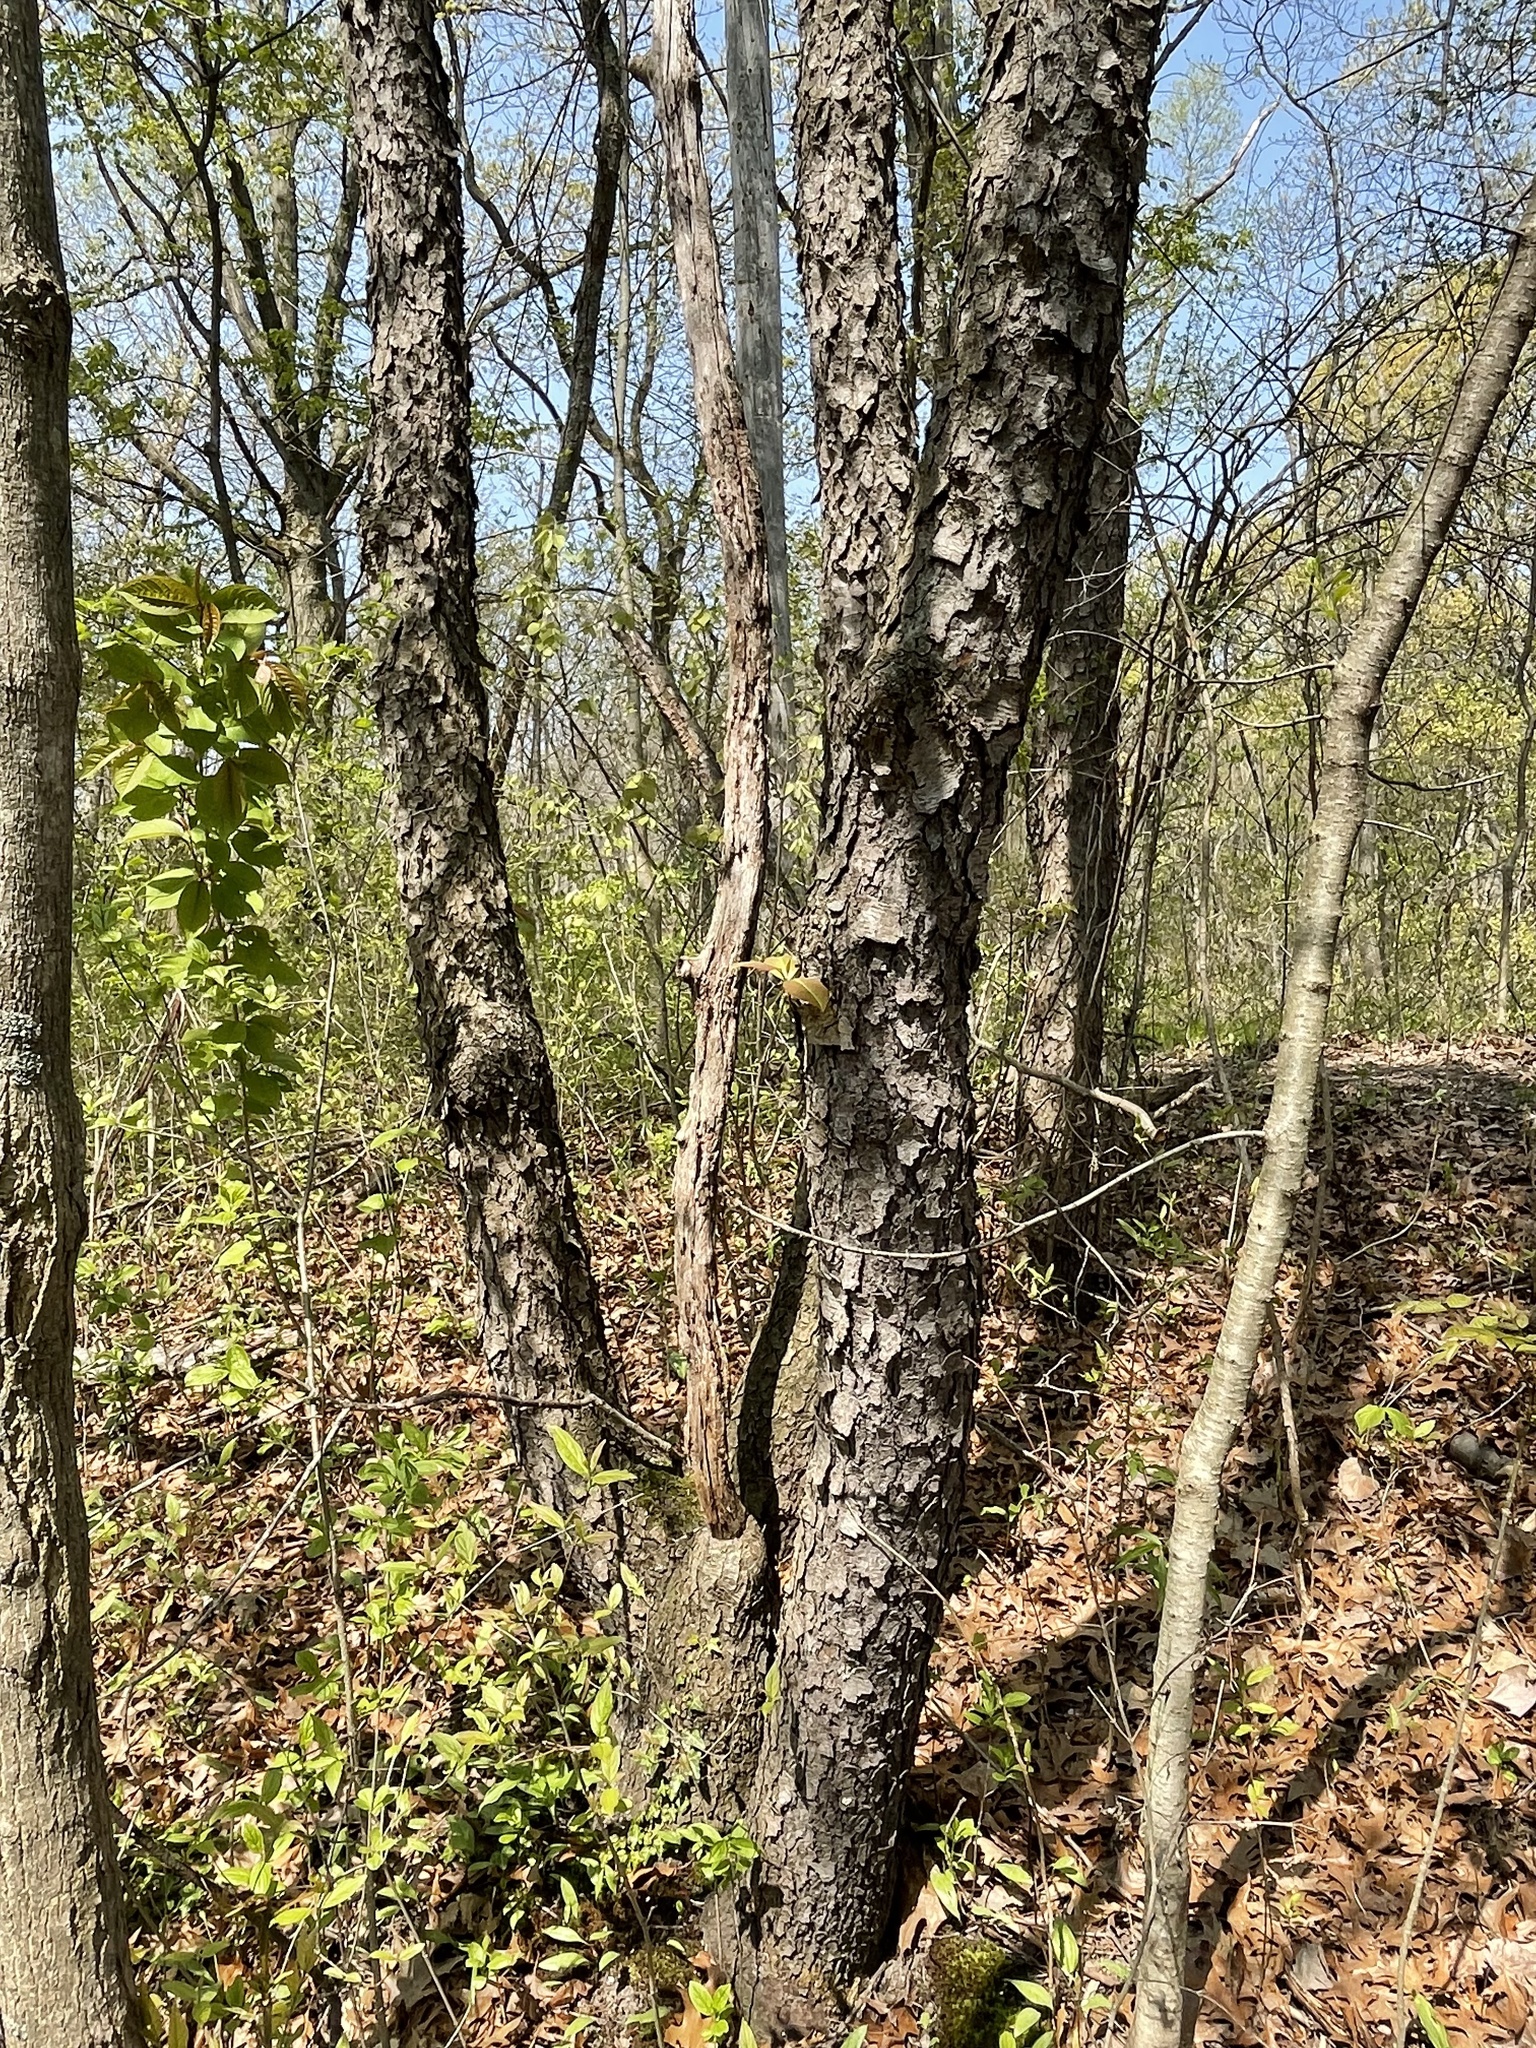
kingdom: Plantae
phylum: Tracheophyta
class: Magnoliopsida
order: Rosales
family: Rosaceae
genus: Prunus
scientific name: Prunus serotina
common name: Black cherry
